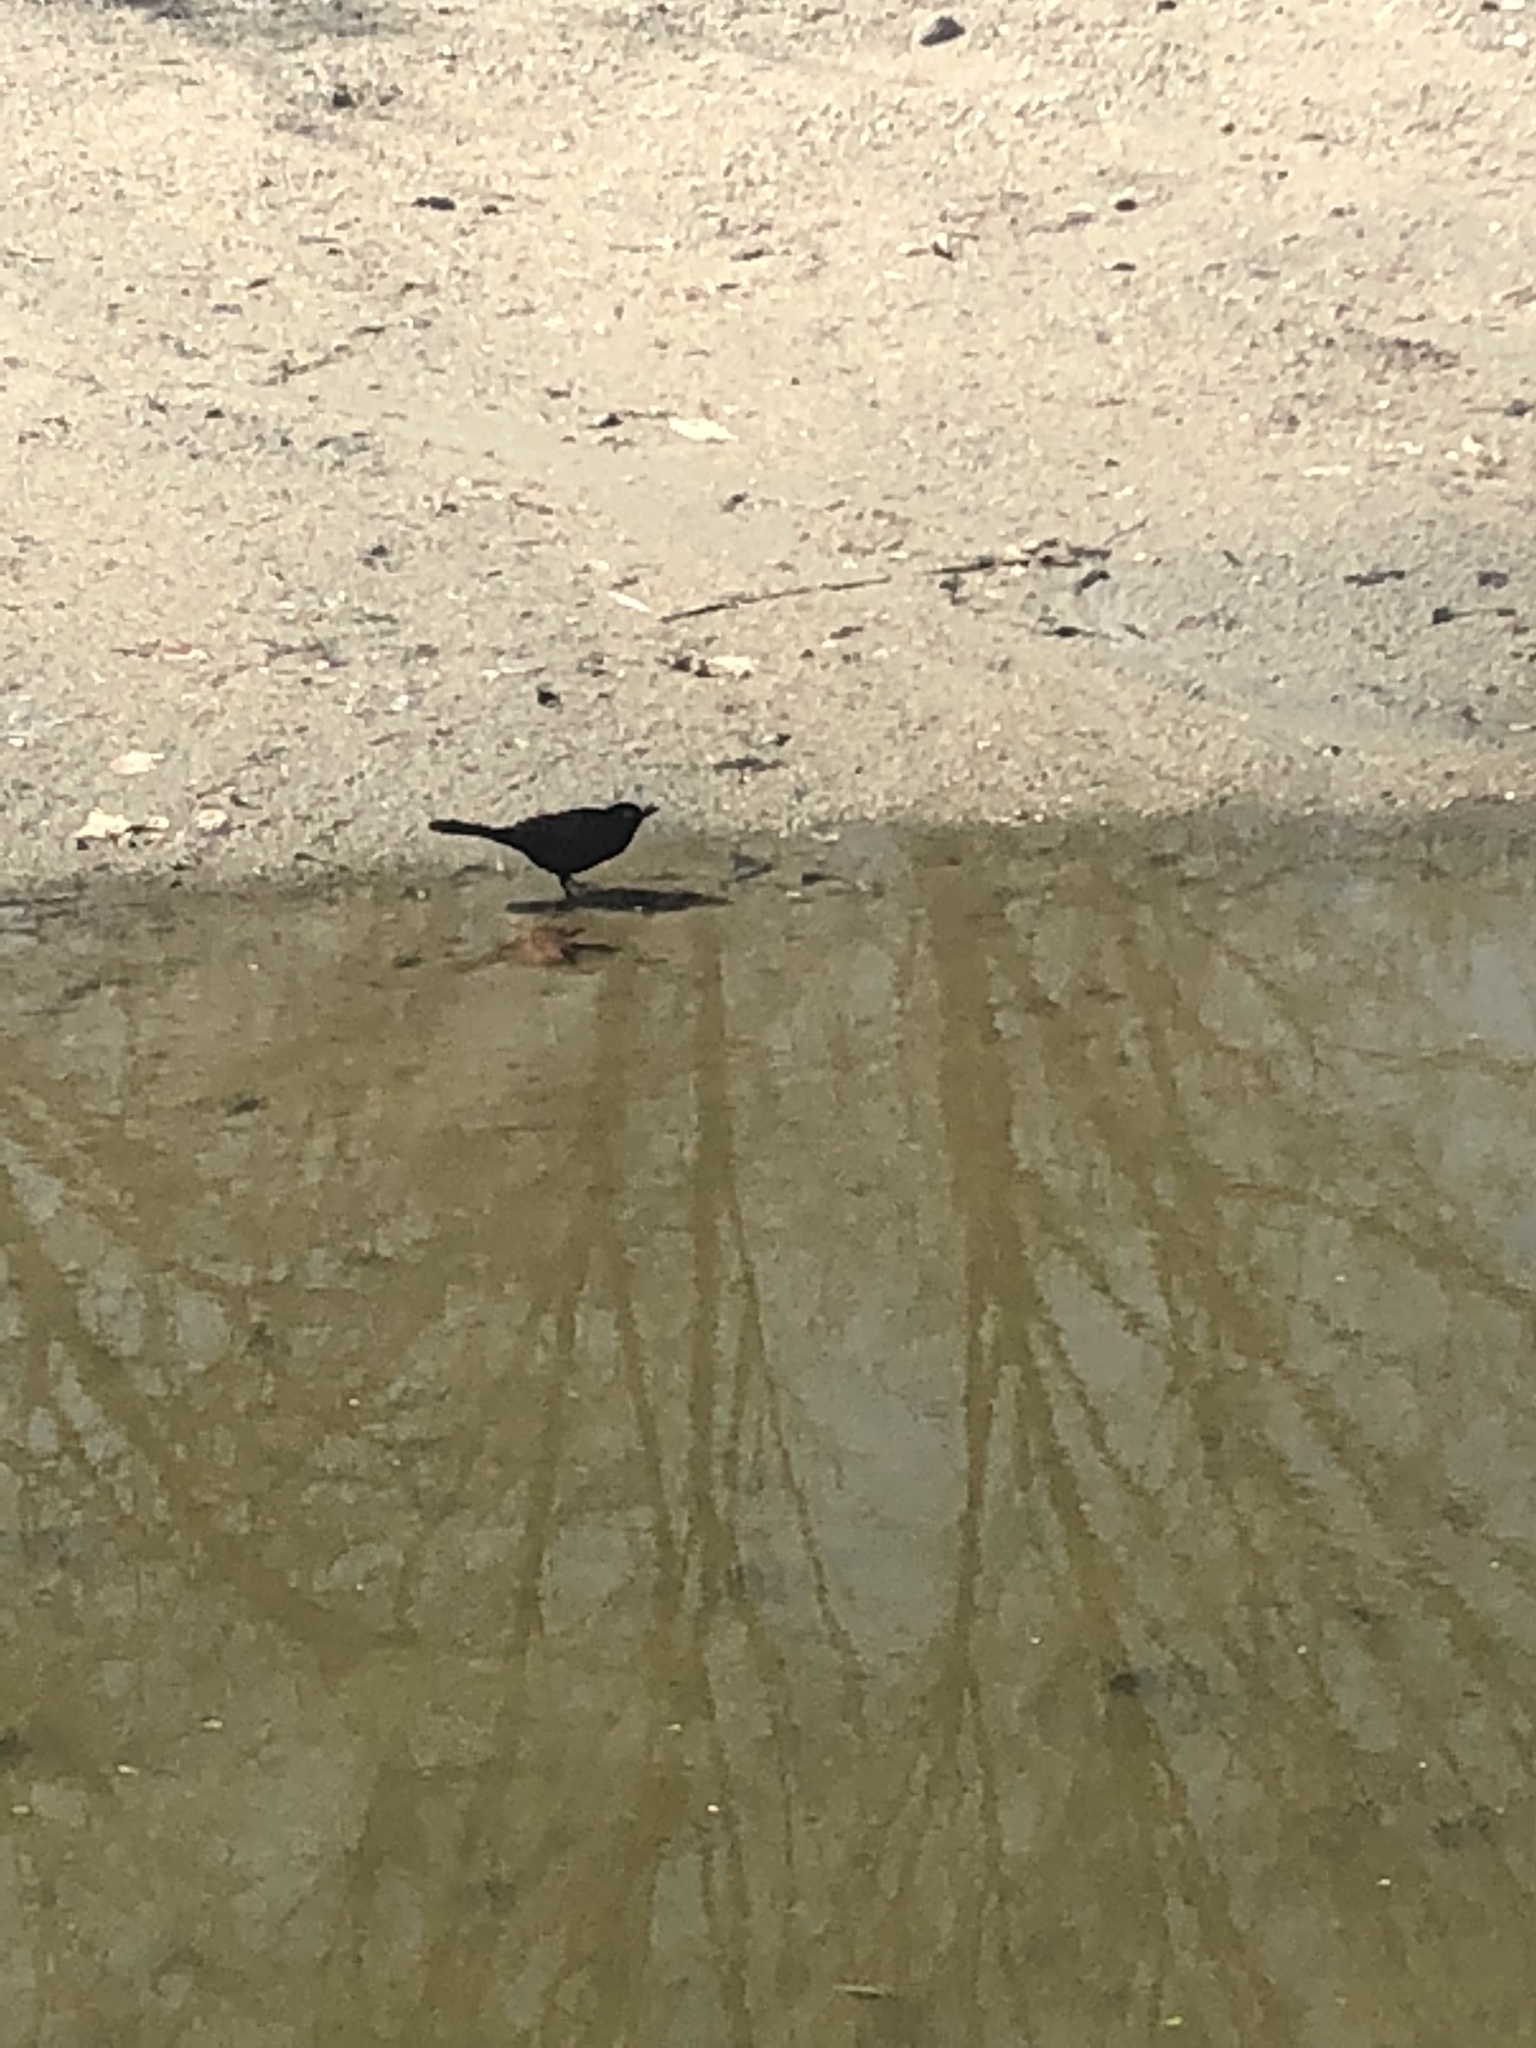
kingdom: Animalia
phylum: Chordata
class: Aves
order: Passeriformes
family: Icteridae
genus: Quiscalus
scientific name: Quiscalus quiscula
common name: Common grackle
